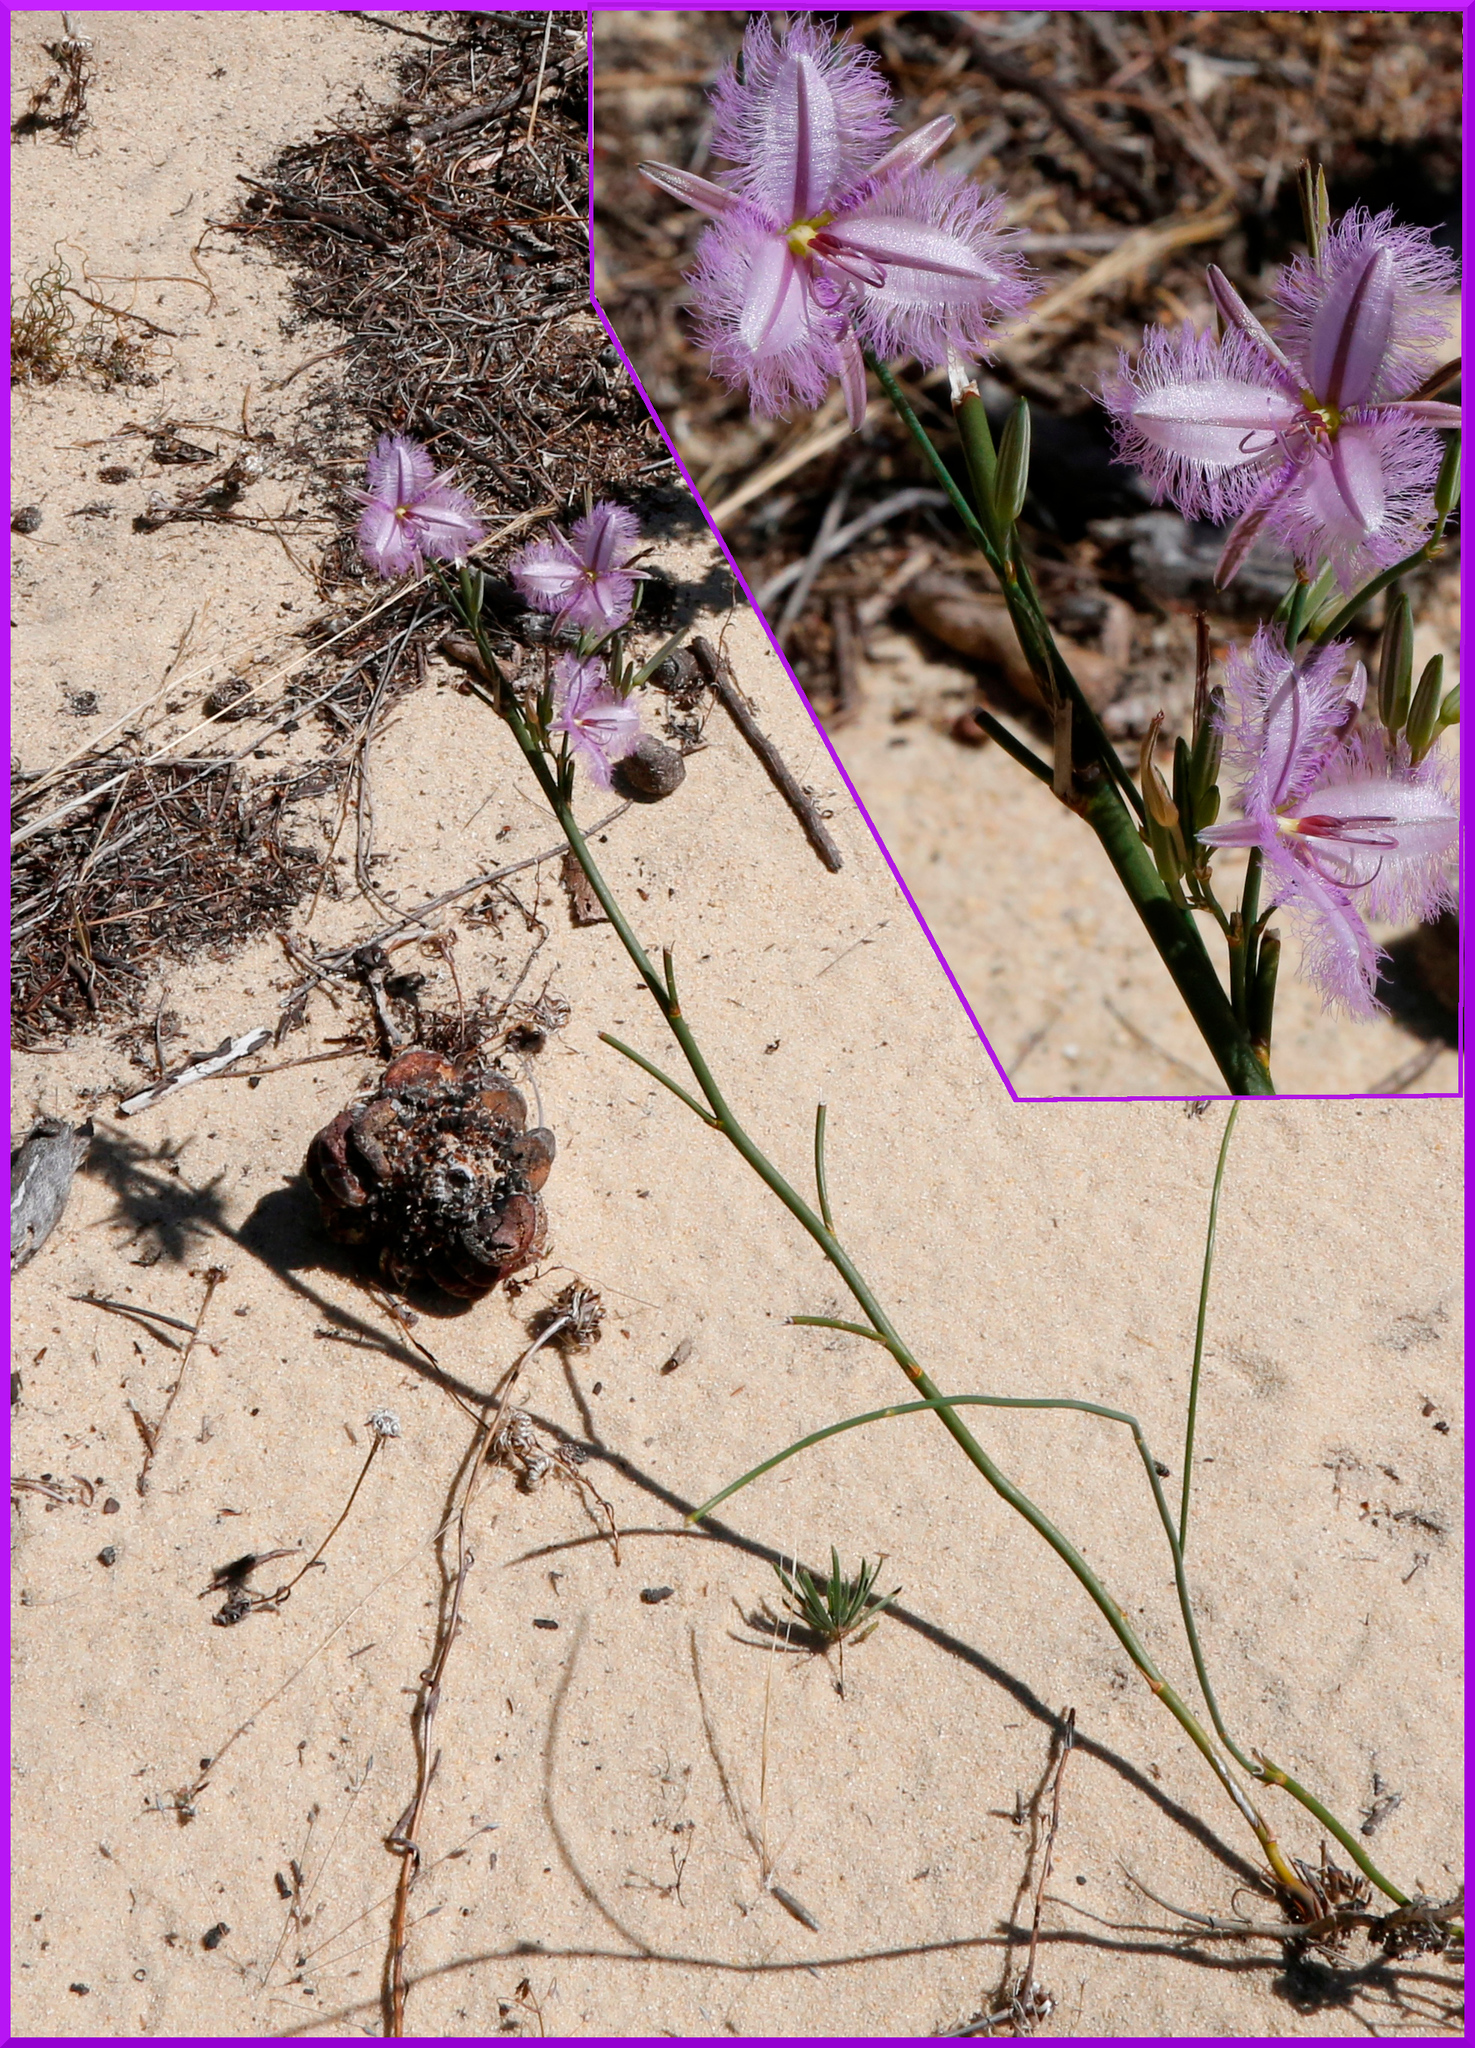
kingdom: Plantae
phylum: Tracheophyta
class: Liliopsida
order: Asparagales
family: Asparagaceae
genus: Thysanotus
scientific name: Thysanotus sparteus
